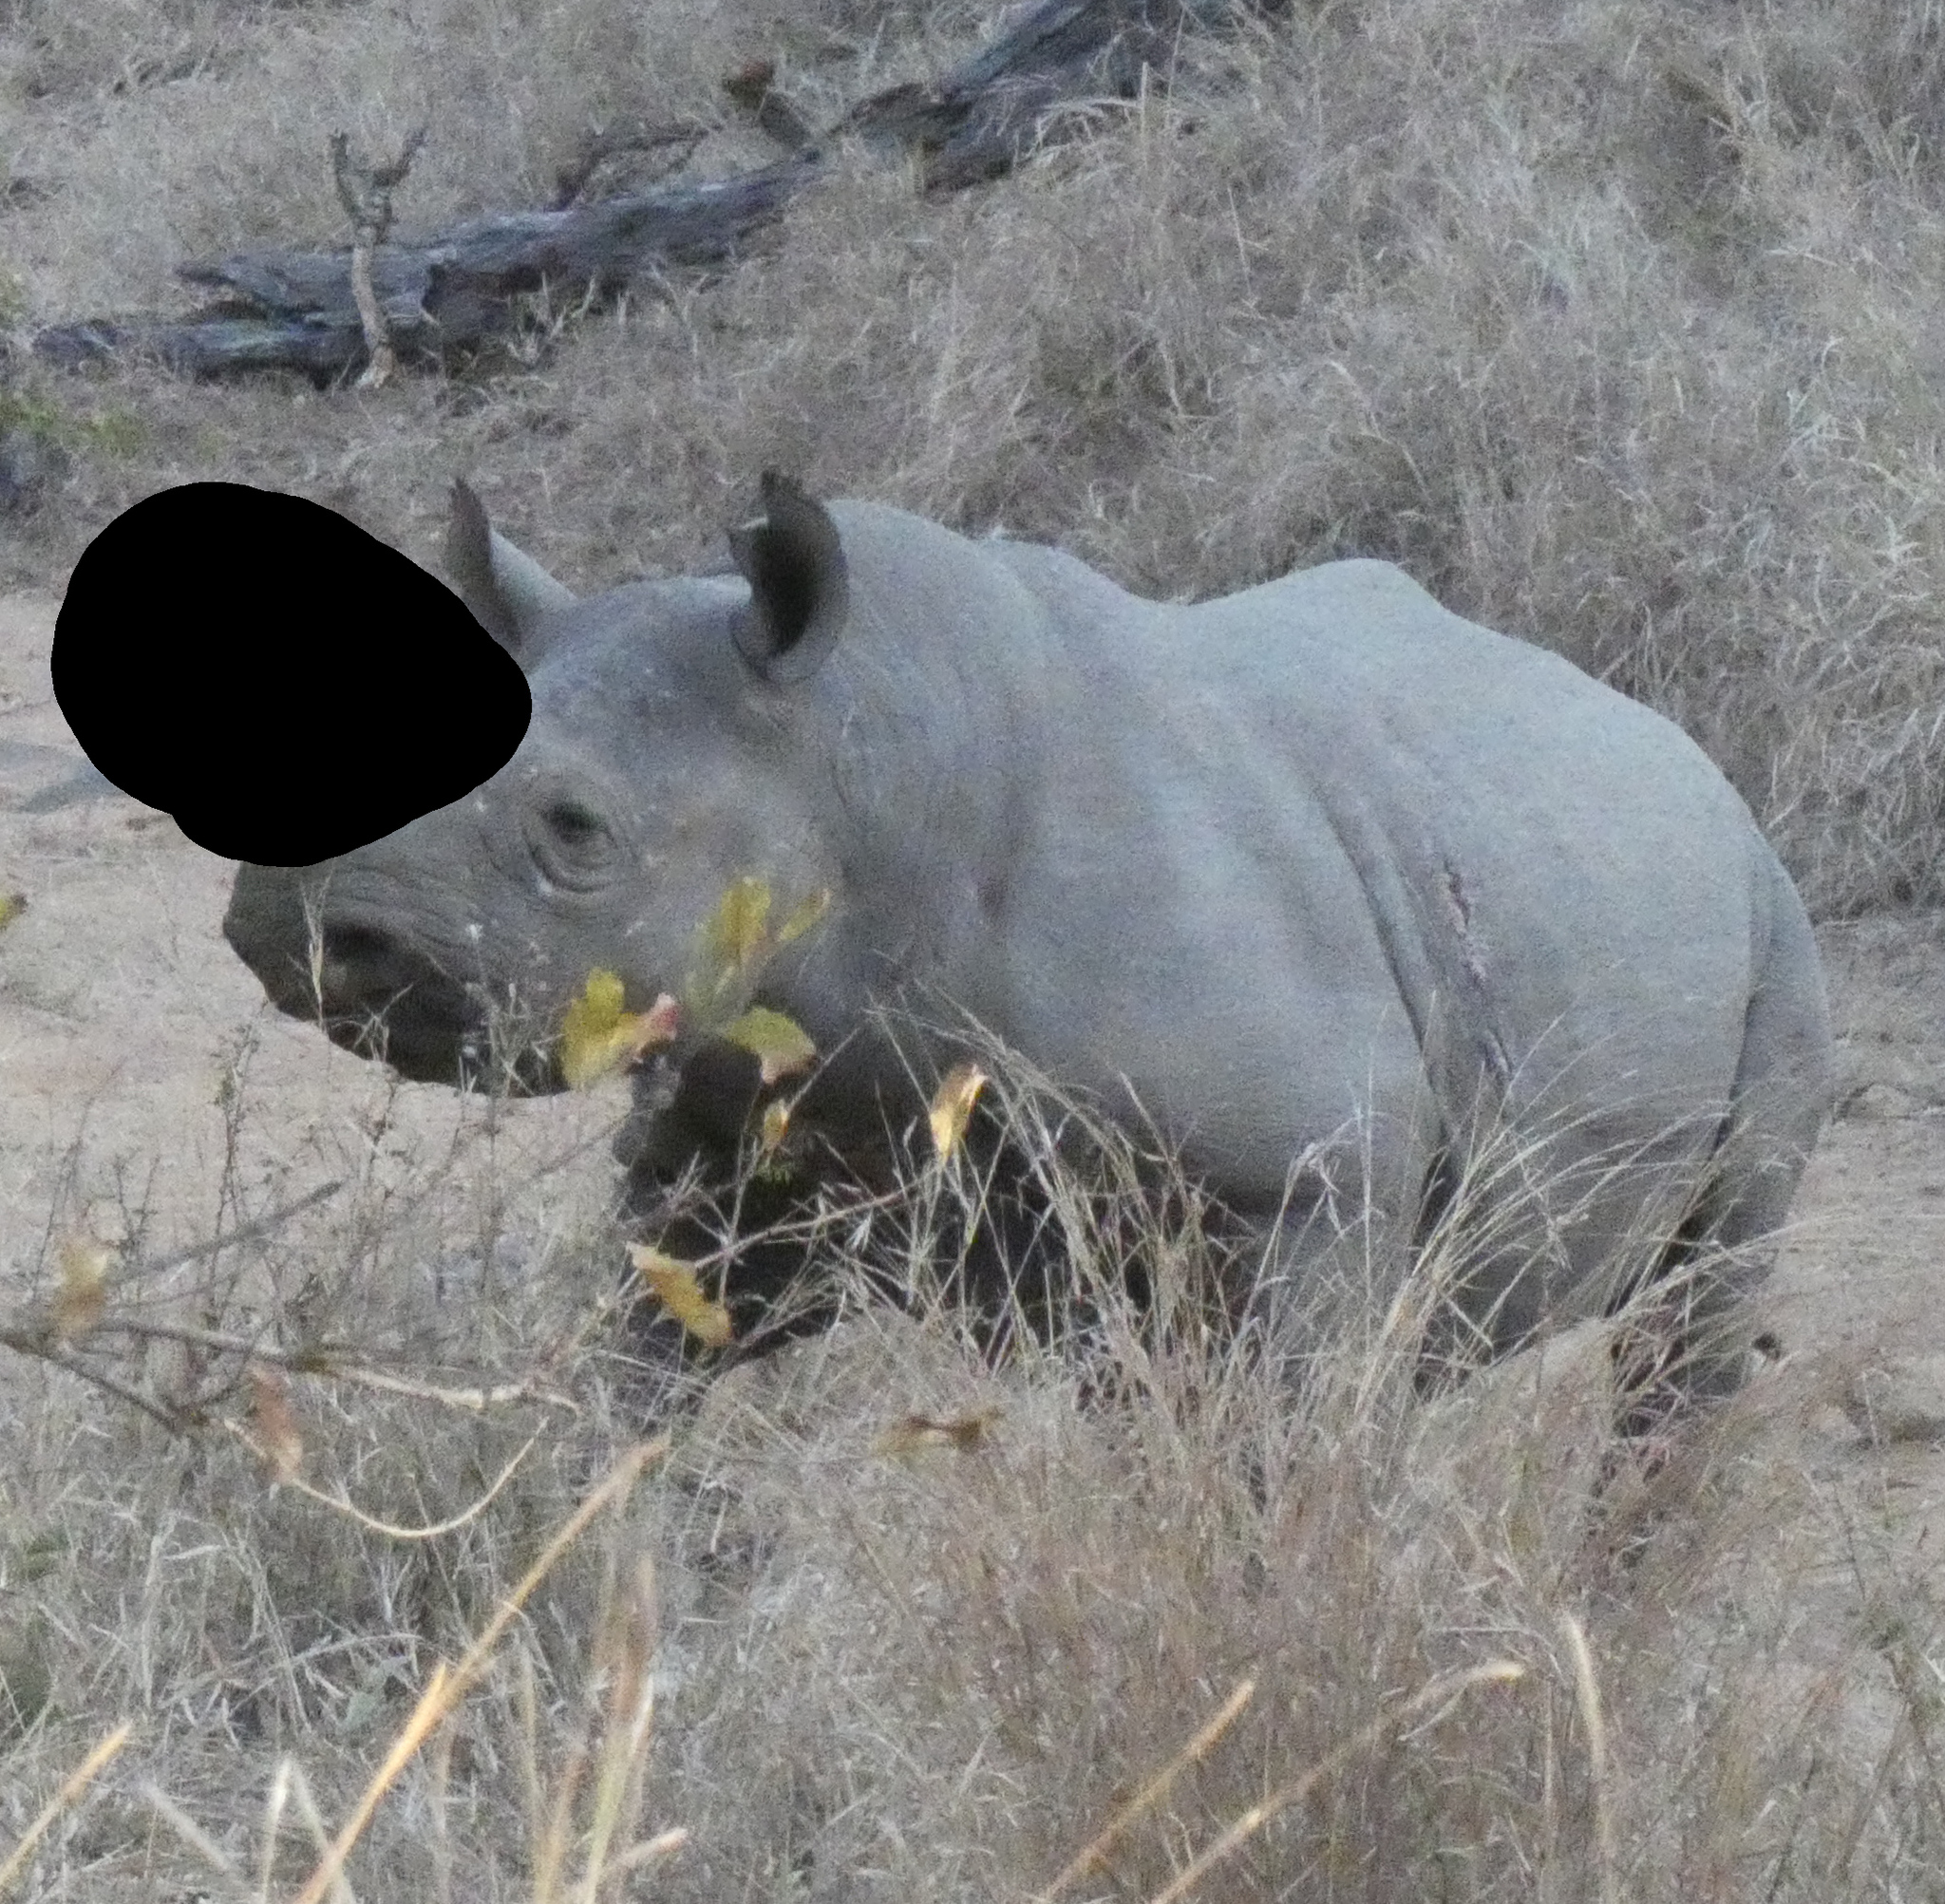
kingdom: Animalia
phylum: Chordata
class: Mammalia
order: Perissodactyla
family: Rhinocerotidae
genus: Diceros
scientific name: Diceros bicornis
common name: Black rhinoceros
